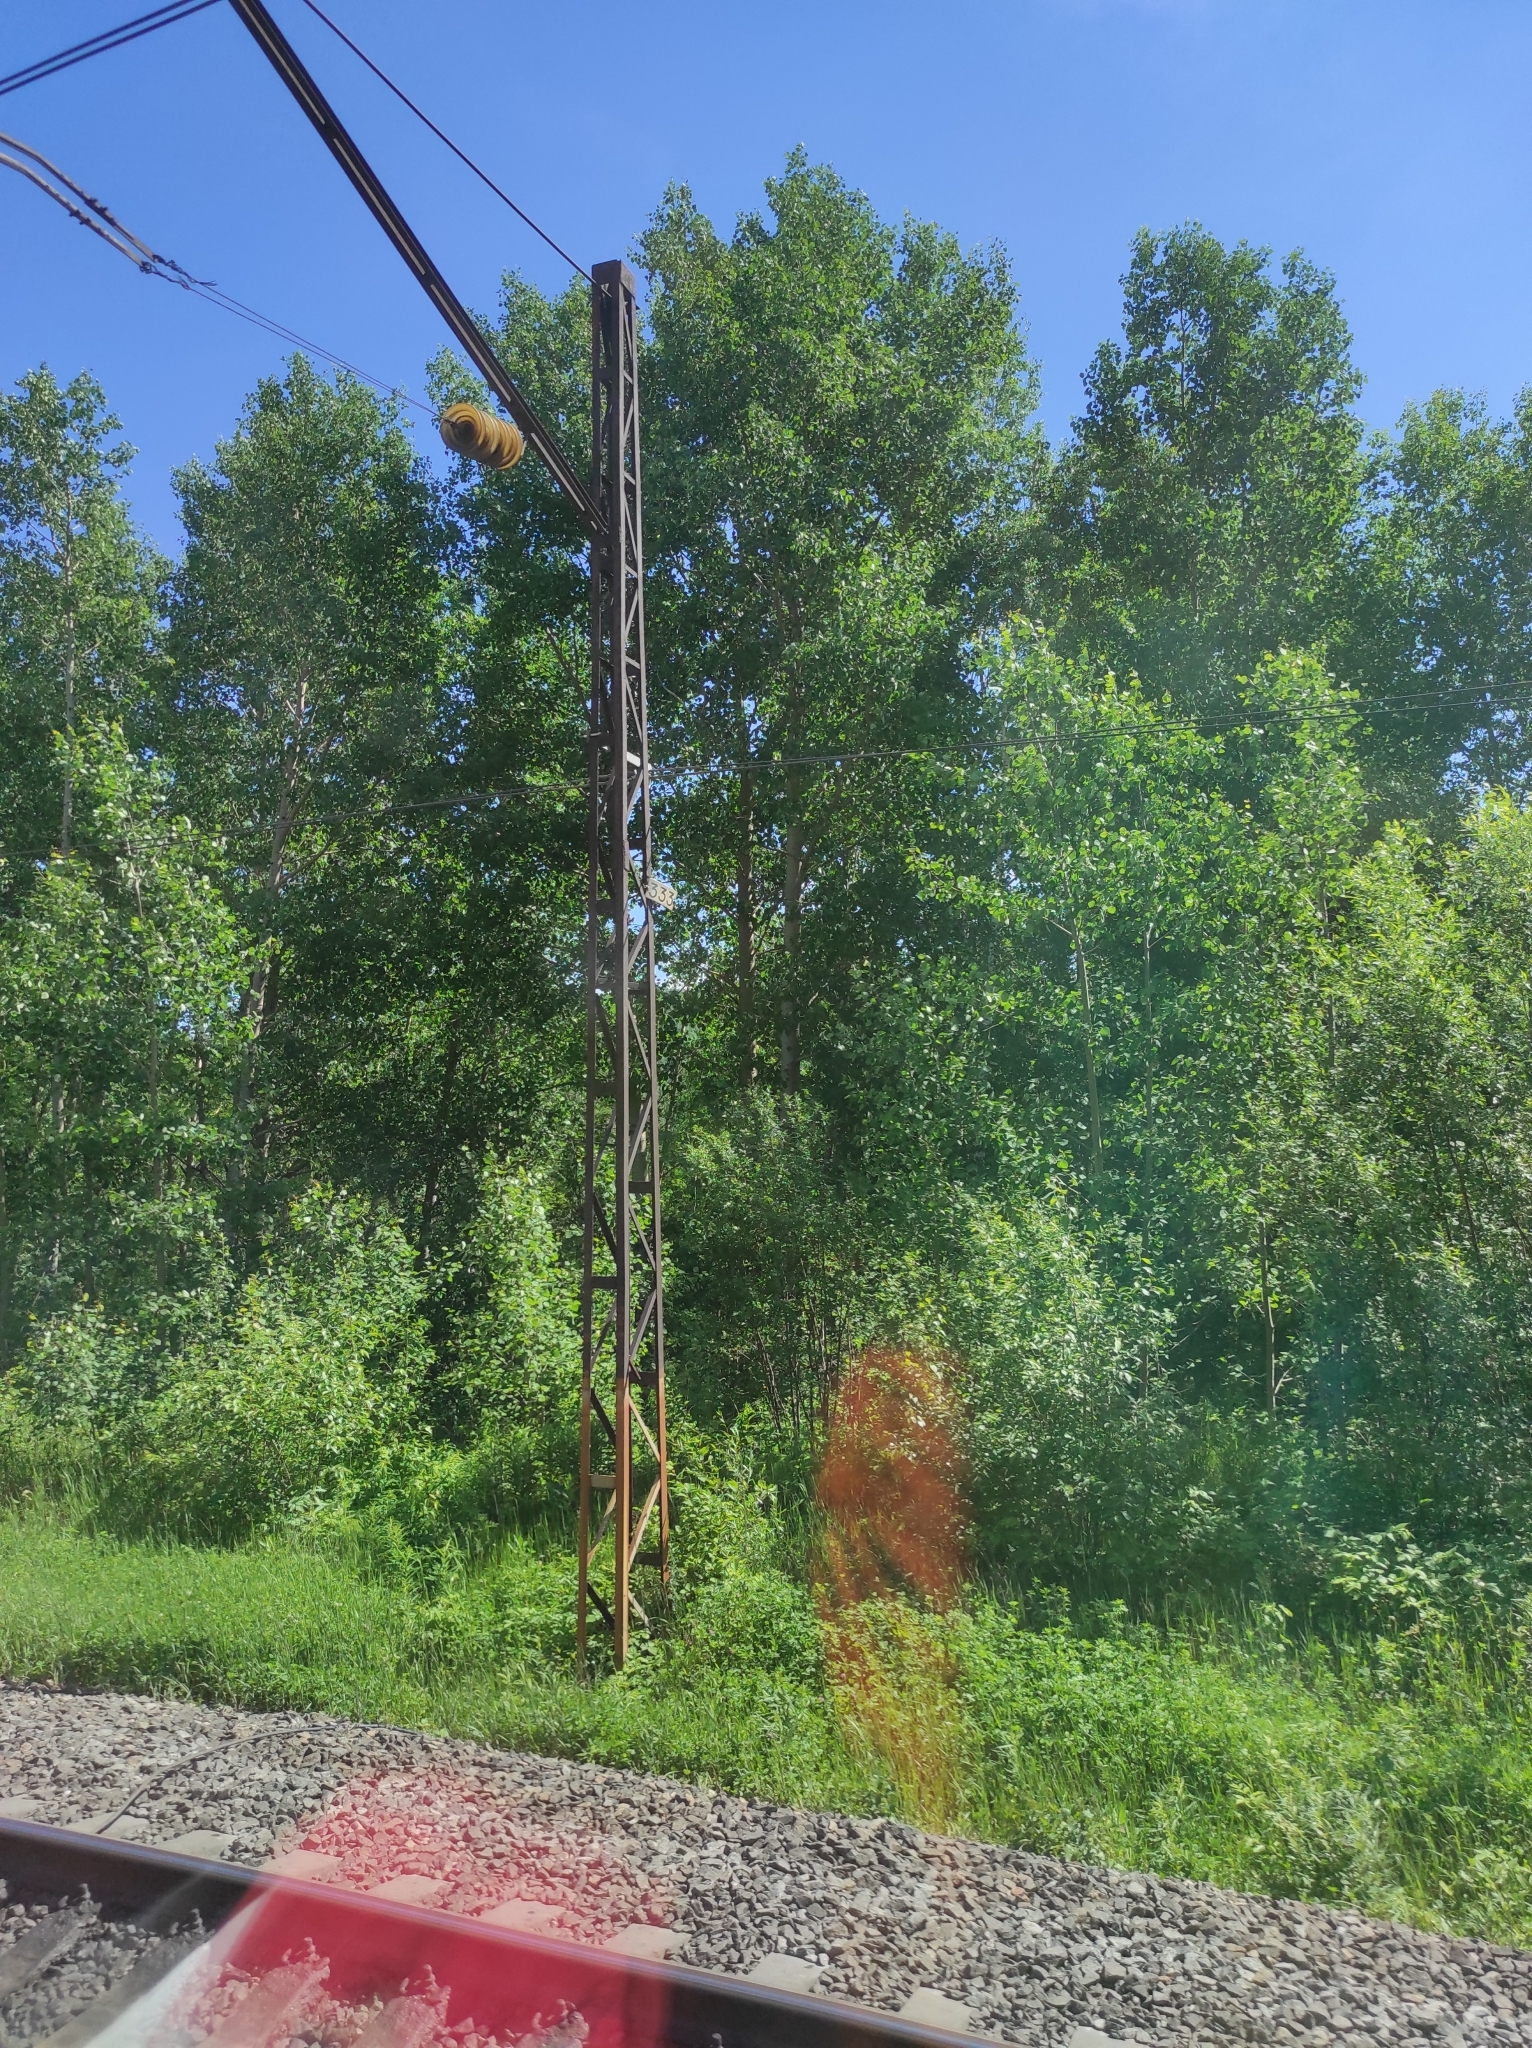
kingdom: Plantae
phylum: Tracheophyta
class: Magnoliopsida
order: Malpighiales
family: Salicaceae
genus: Populus
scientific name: Populus tremula
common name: European aspen
